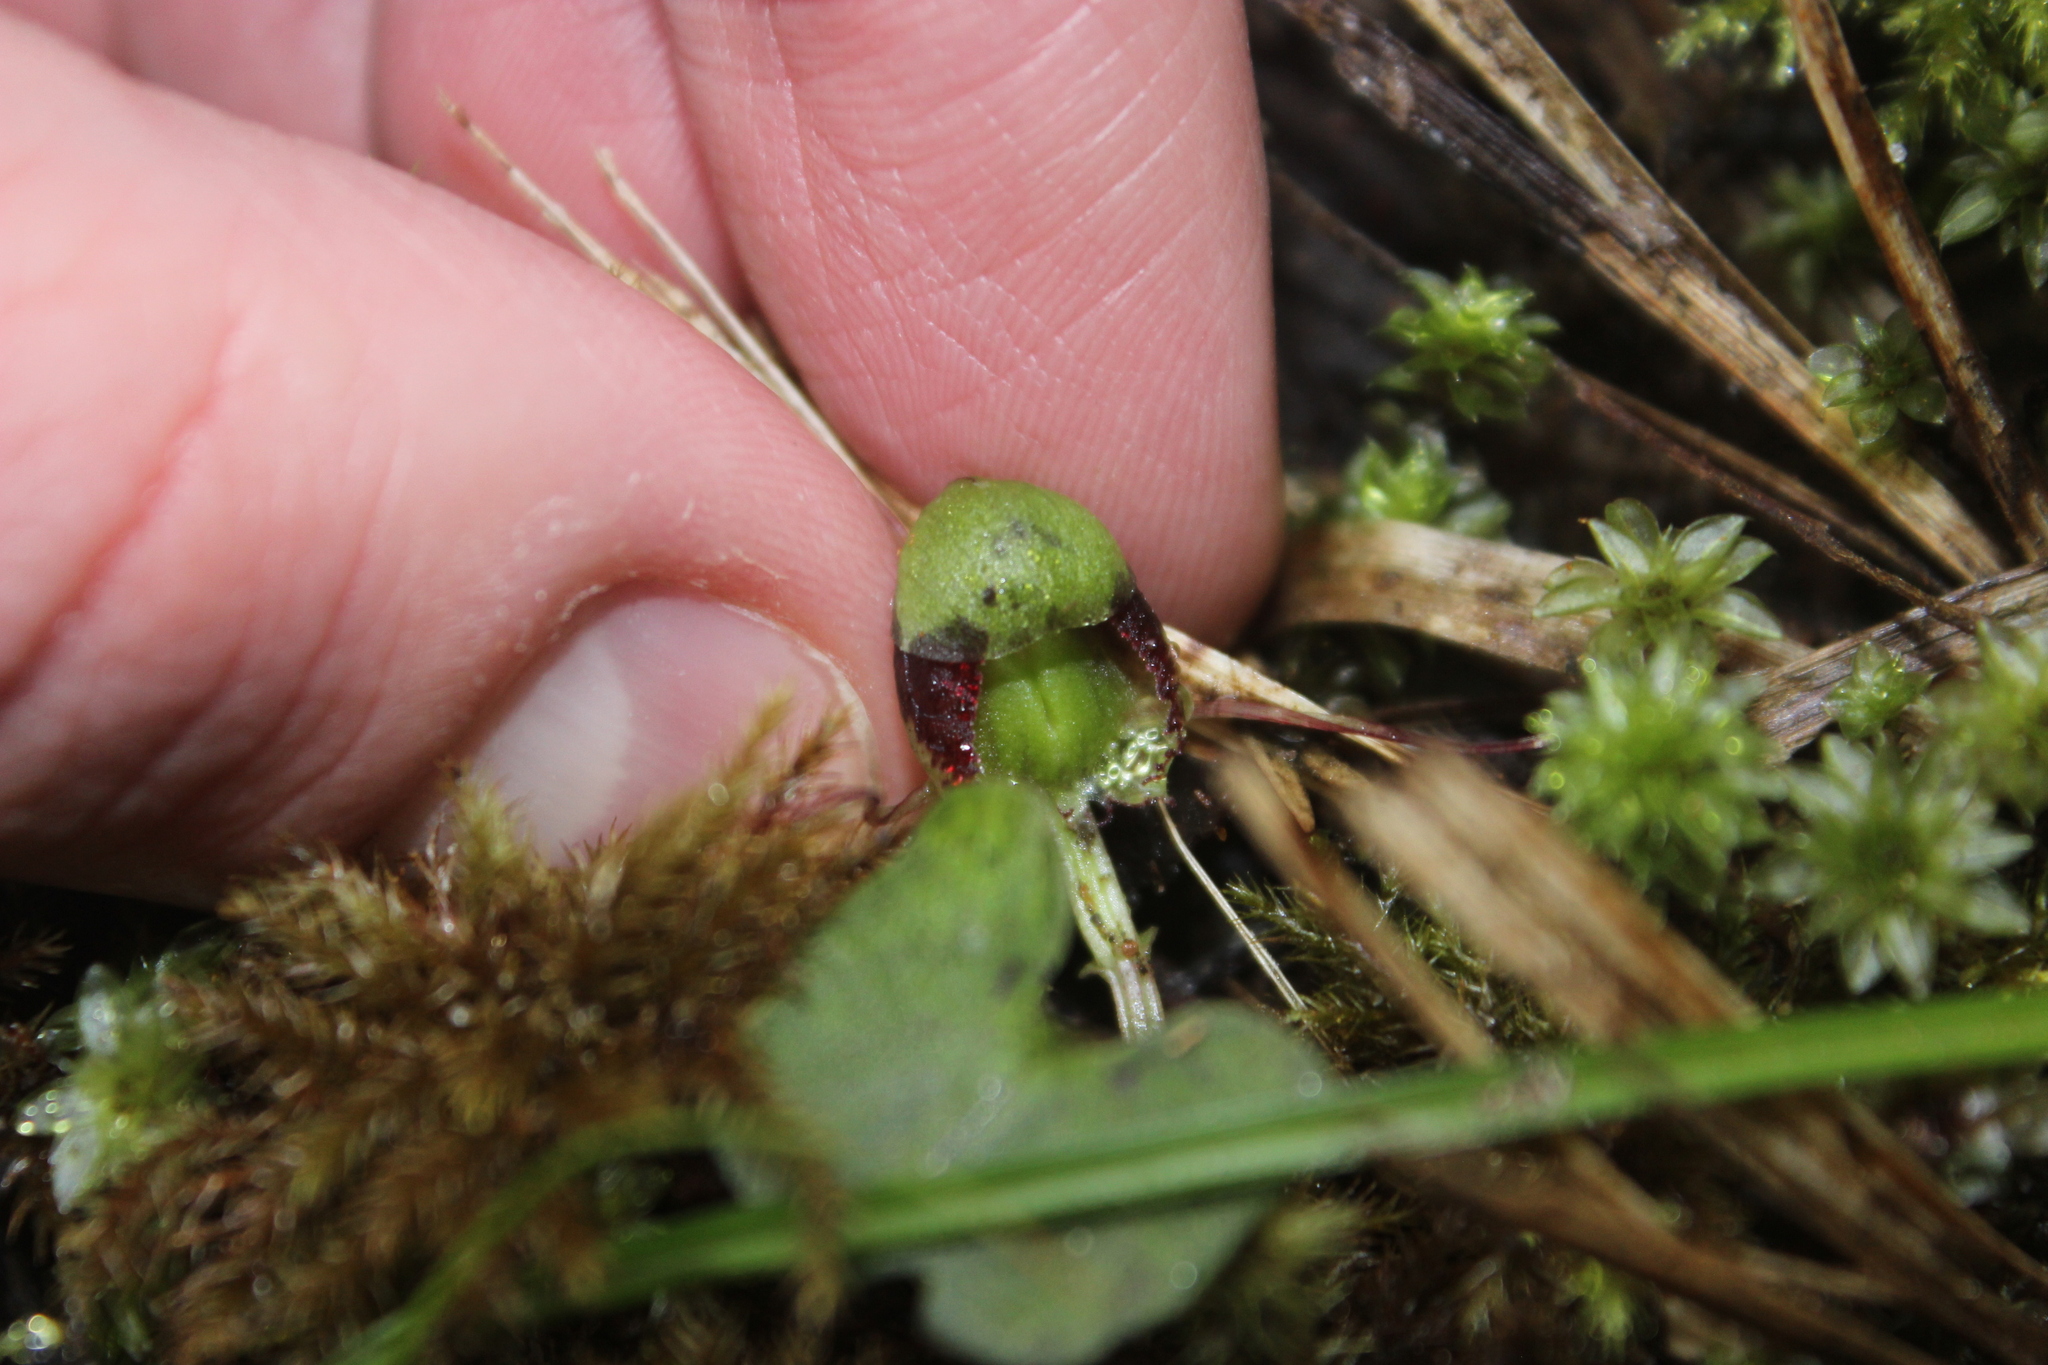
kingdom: Plantae
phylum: Tracheophyta
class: Liliopsida
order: Asparagales
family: Orchidaceae
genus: Corybas
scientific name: Corybas vitreus
